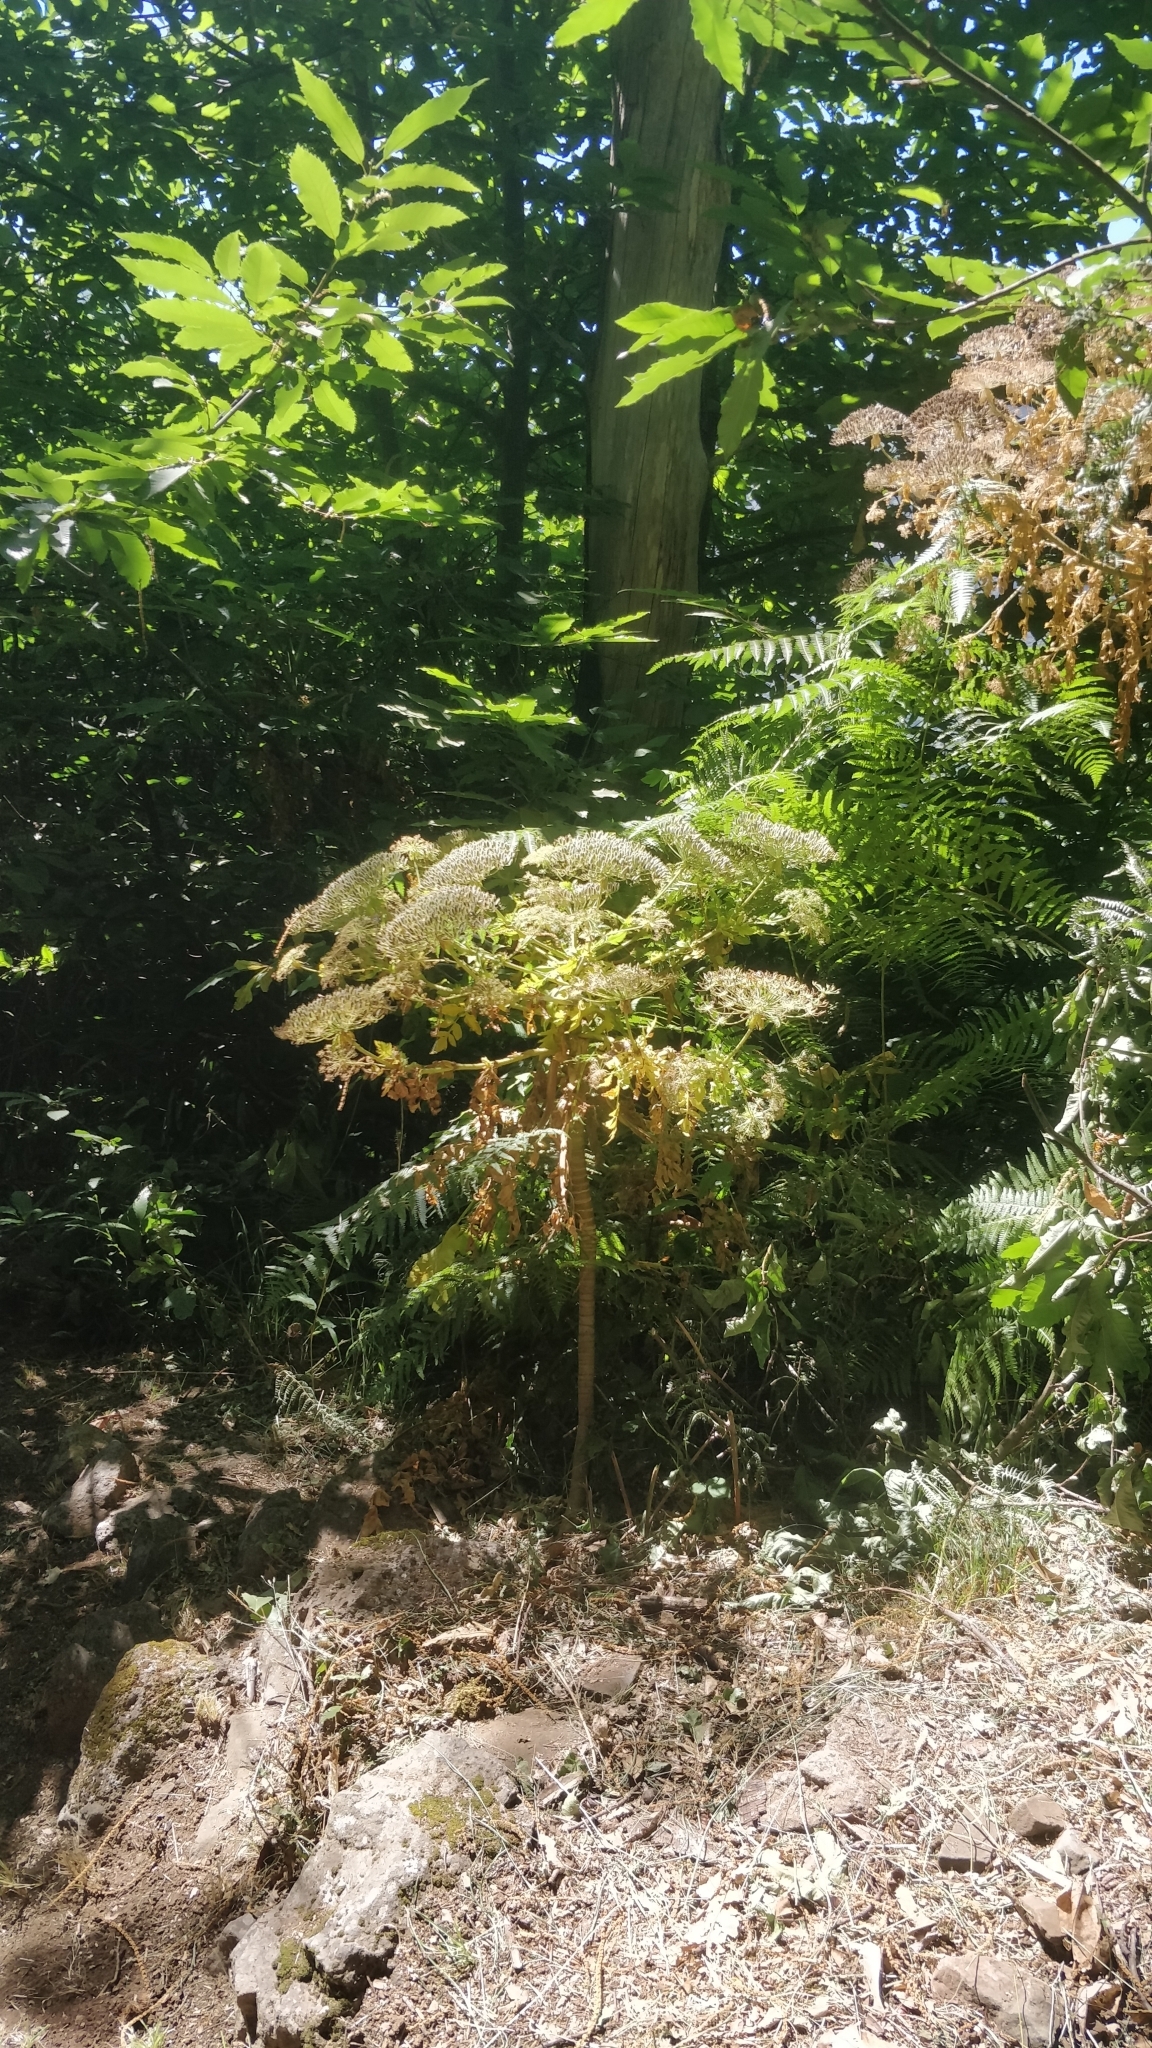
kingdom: Plantae
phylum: Tracheophyta
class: Magnoliopsida
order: Apiales
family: Apiaceae
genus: Daucus
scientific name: Daucus decipiens
